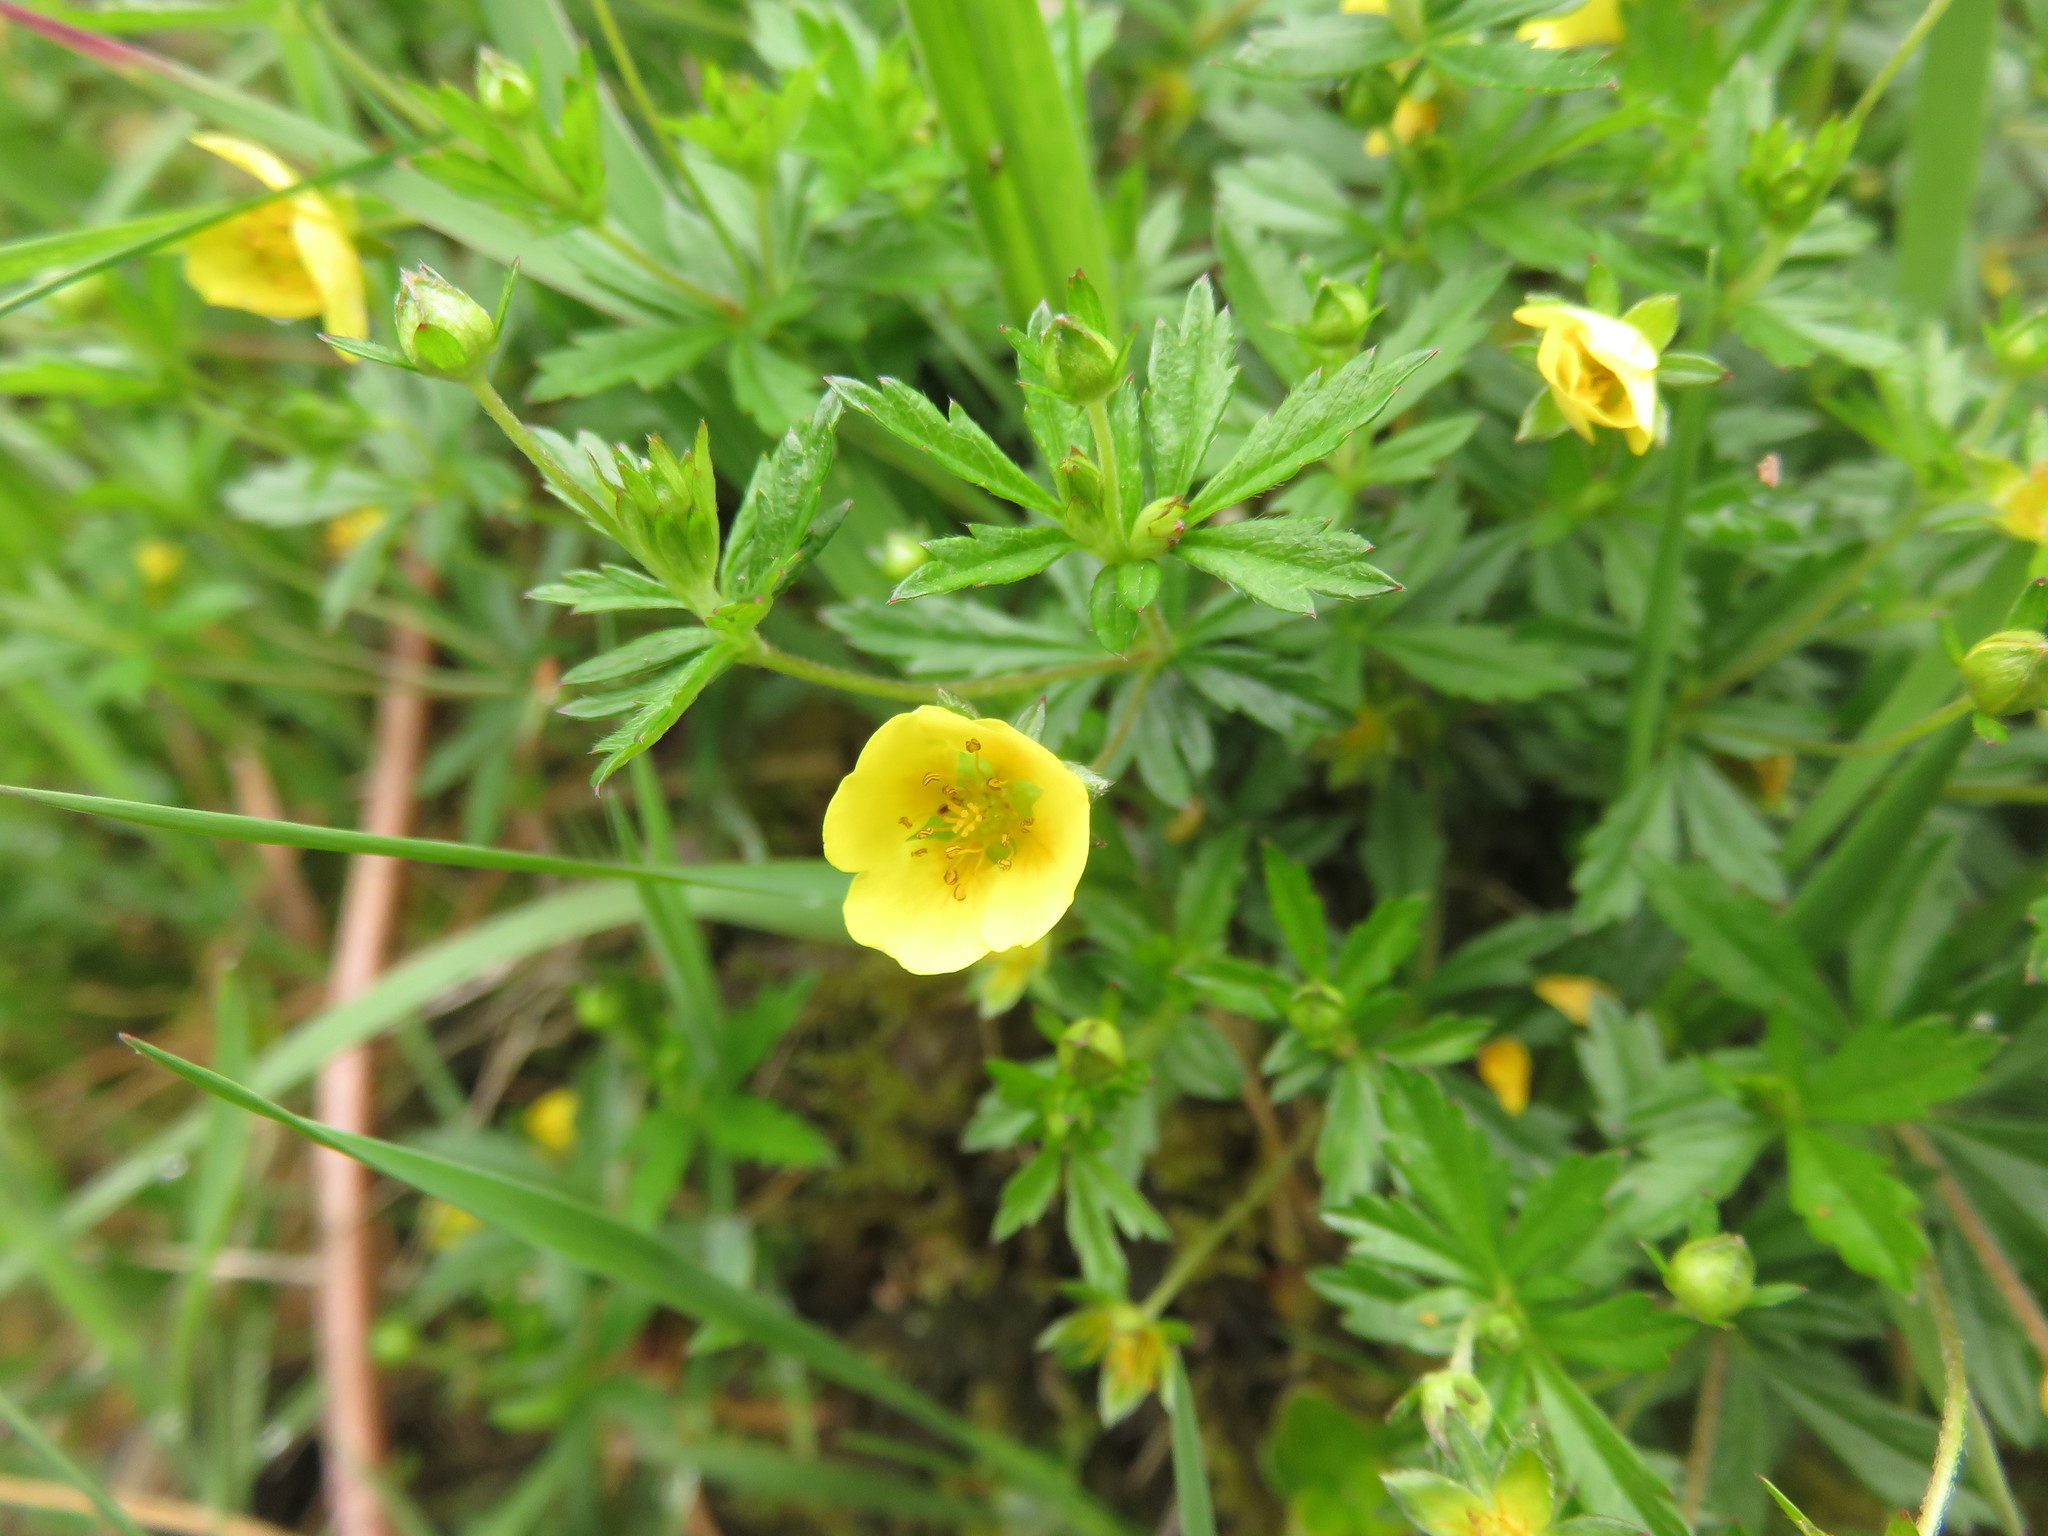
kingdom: Plantae
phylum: Tracheophyta
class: Magnoliopsida
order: Rosales
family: Rosaceae
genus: Potentilla
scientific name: Potentilla erecta
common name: Tormentil
